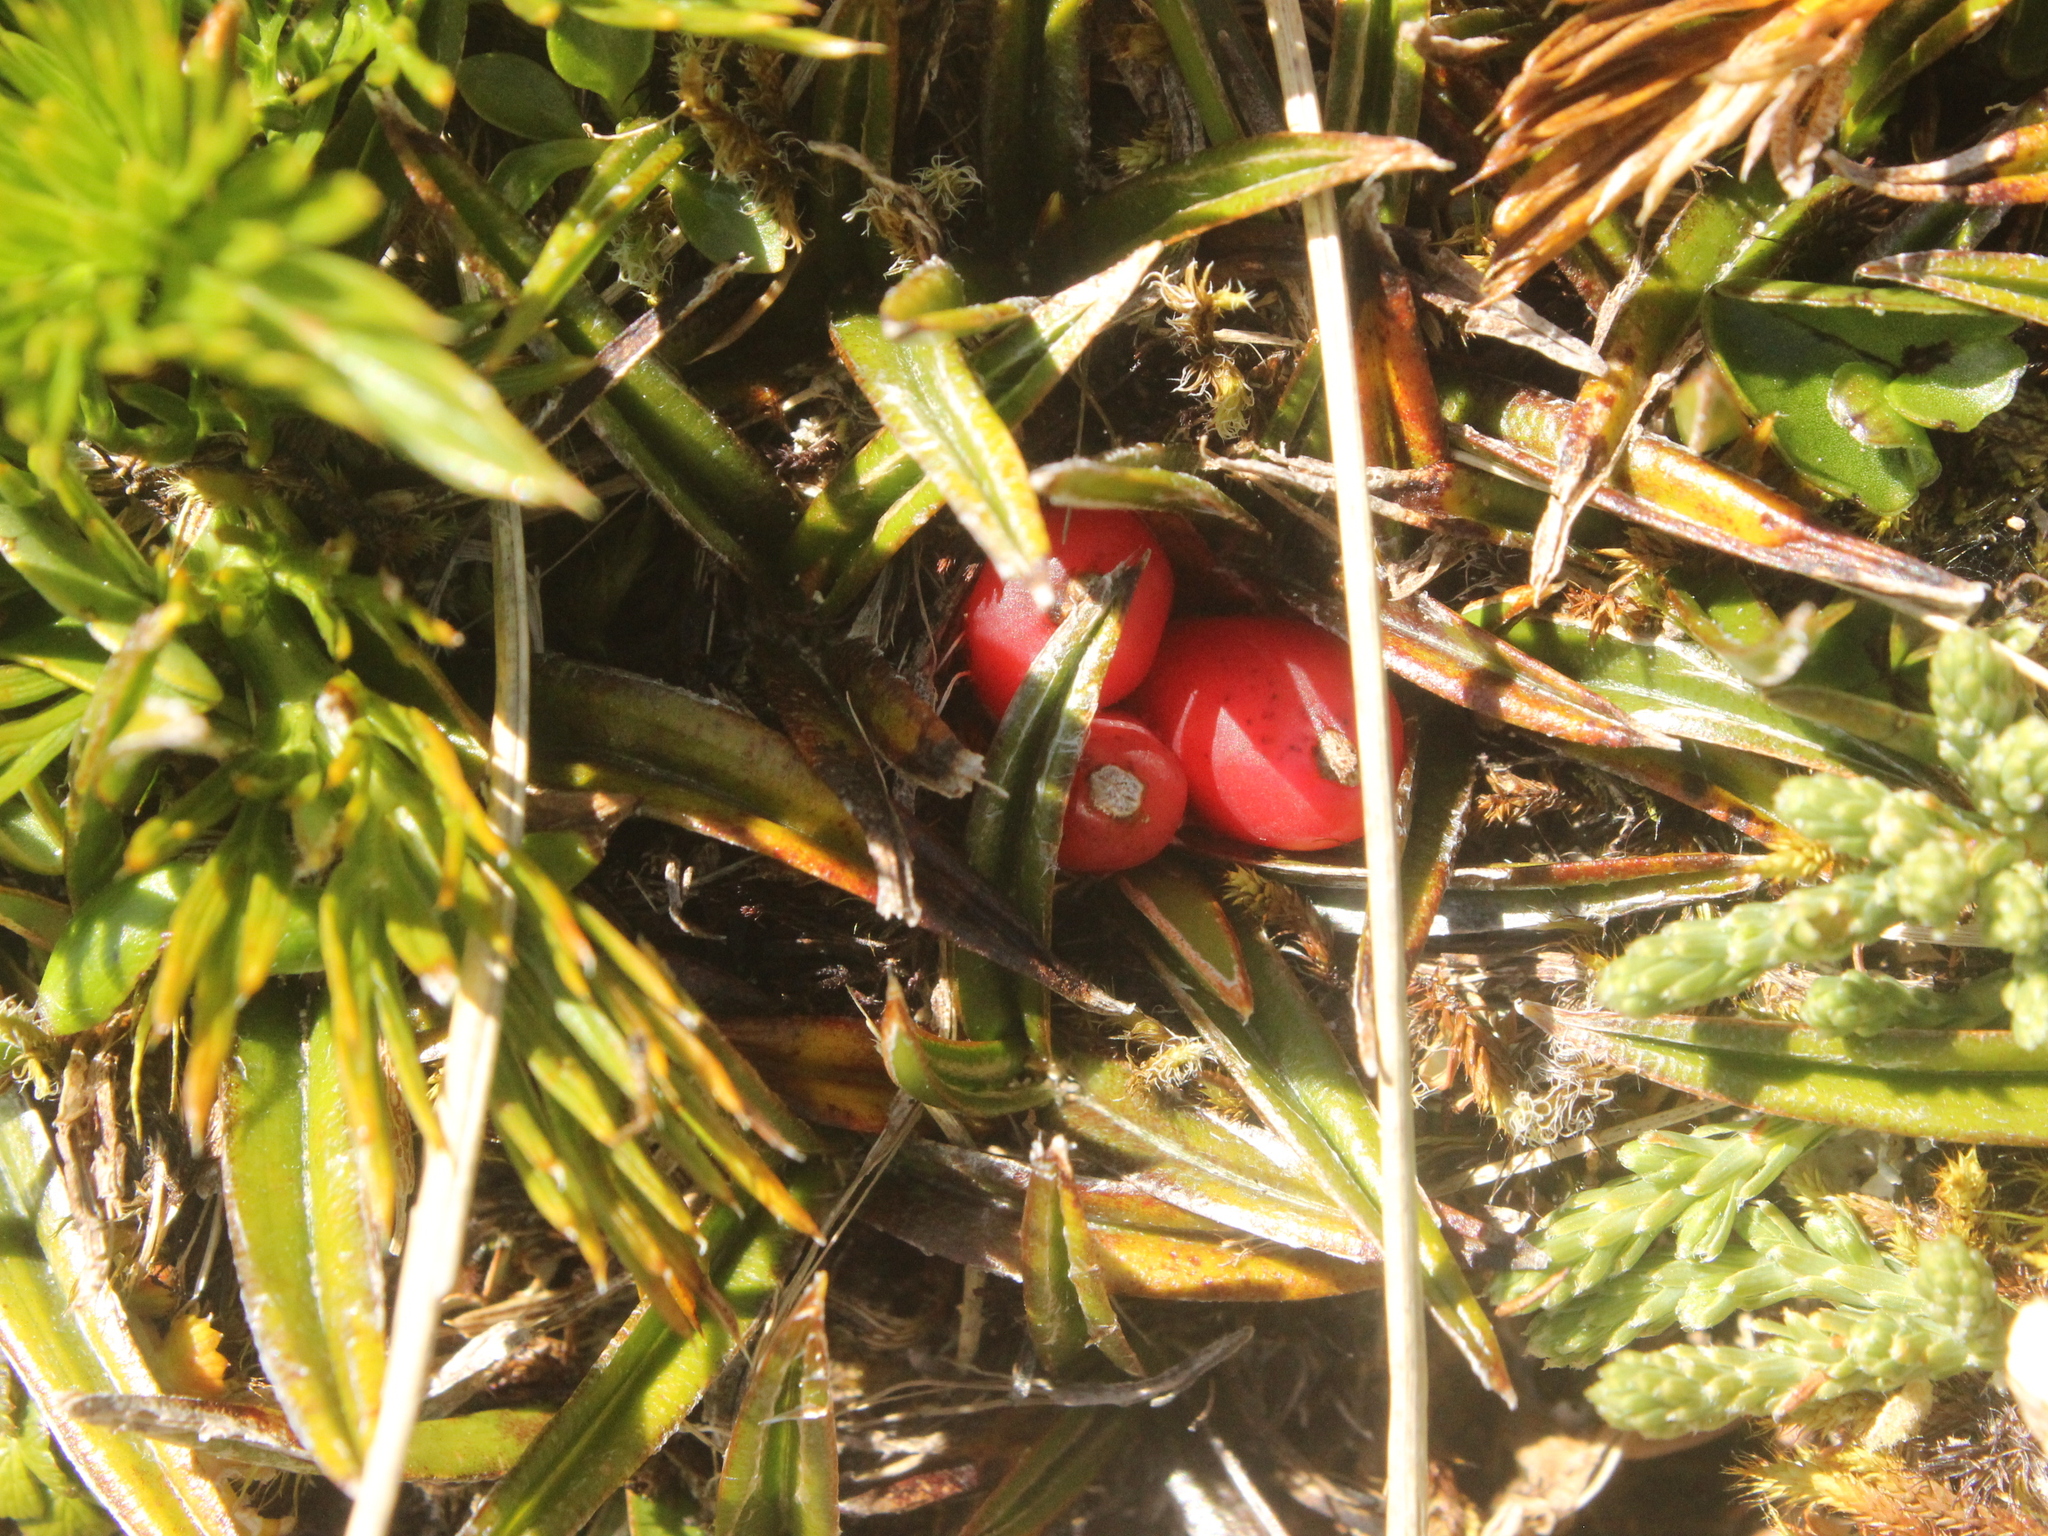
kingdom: Plantae
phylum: Tracheophyta
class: Liliopsida
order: Asparagales
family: Asteliaceae
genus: Astelia
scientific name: Astelia linearis
